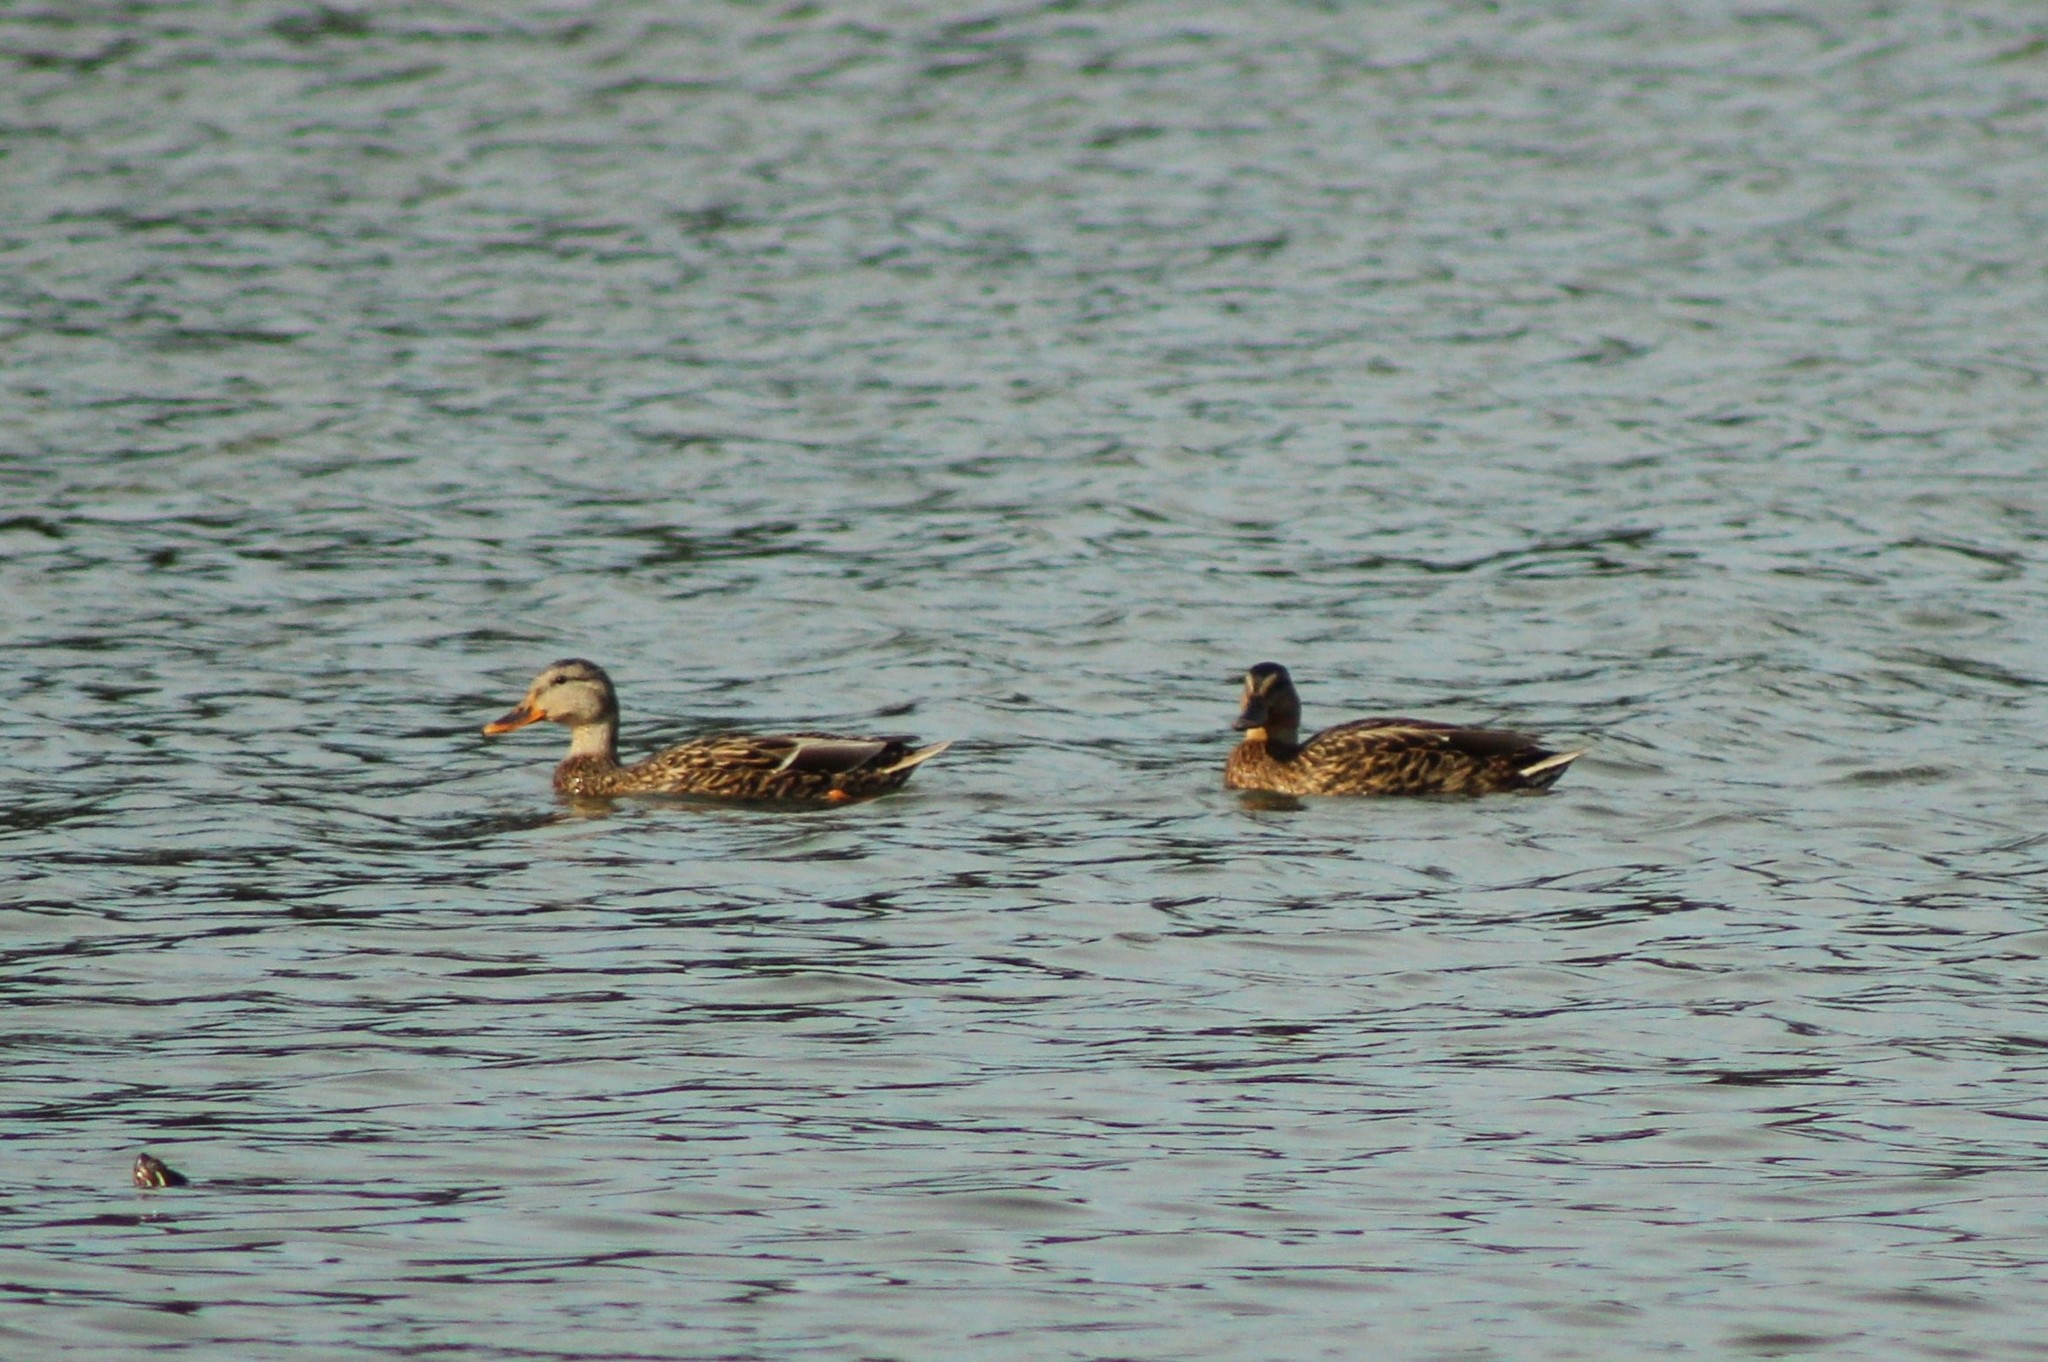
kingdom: Animalia
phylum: Chordata
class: Aves
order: Anseriformes
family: Anatidae
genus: Anas
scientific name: Anas platyrhynchos
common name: Mallard
